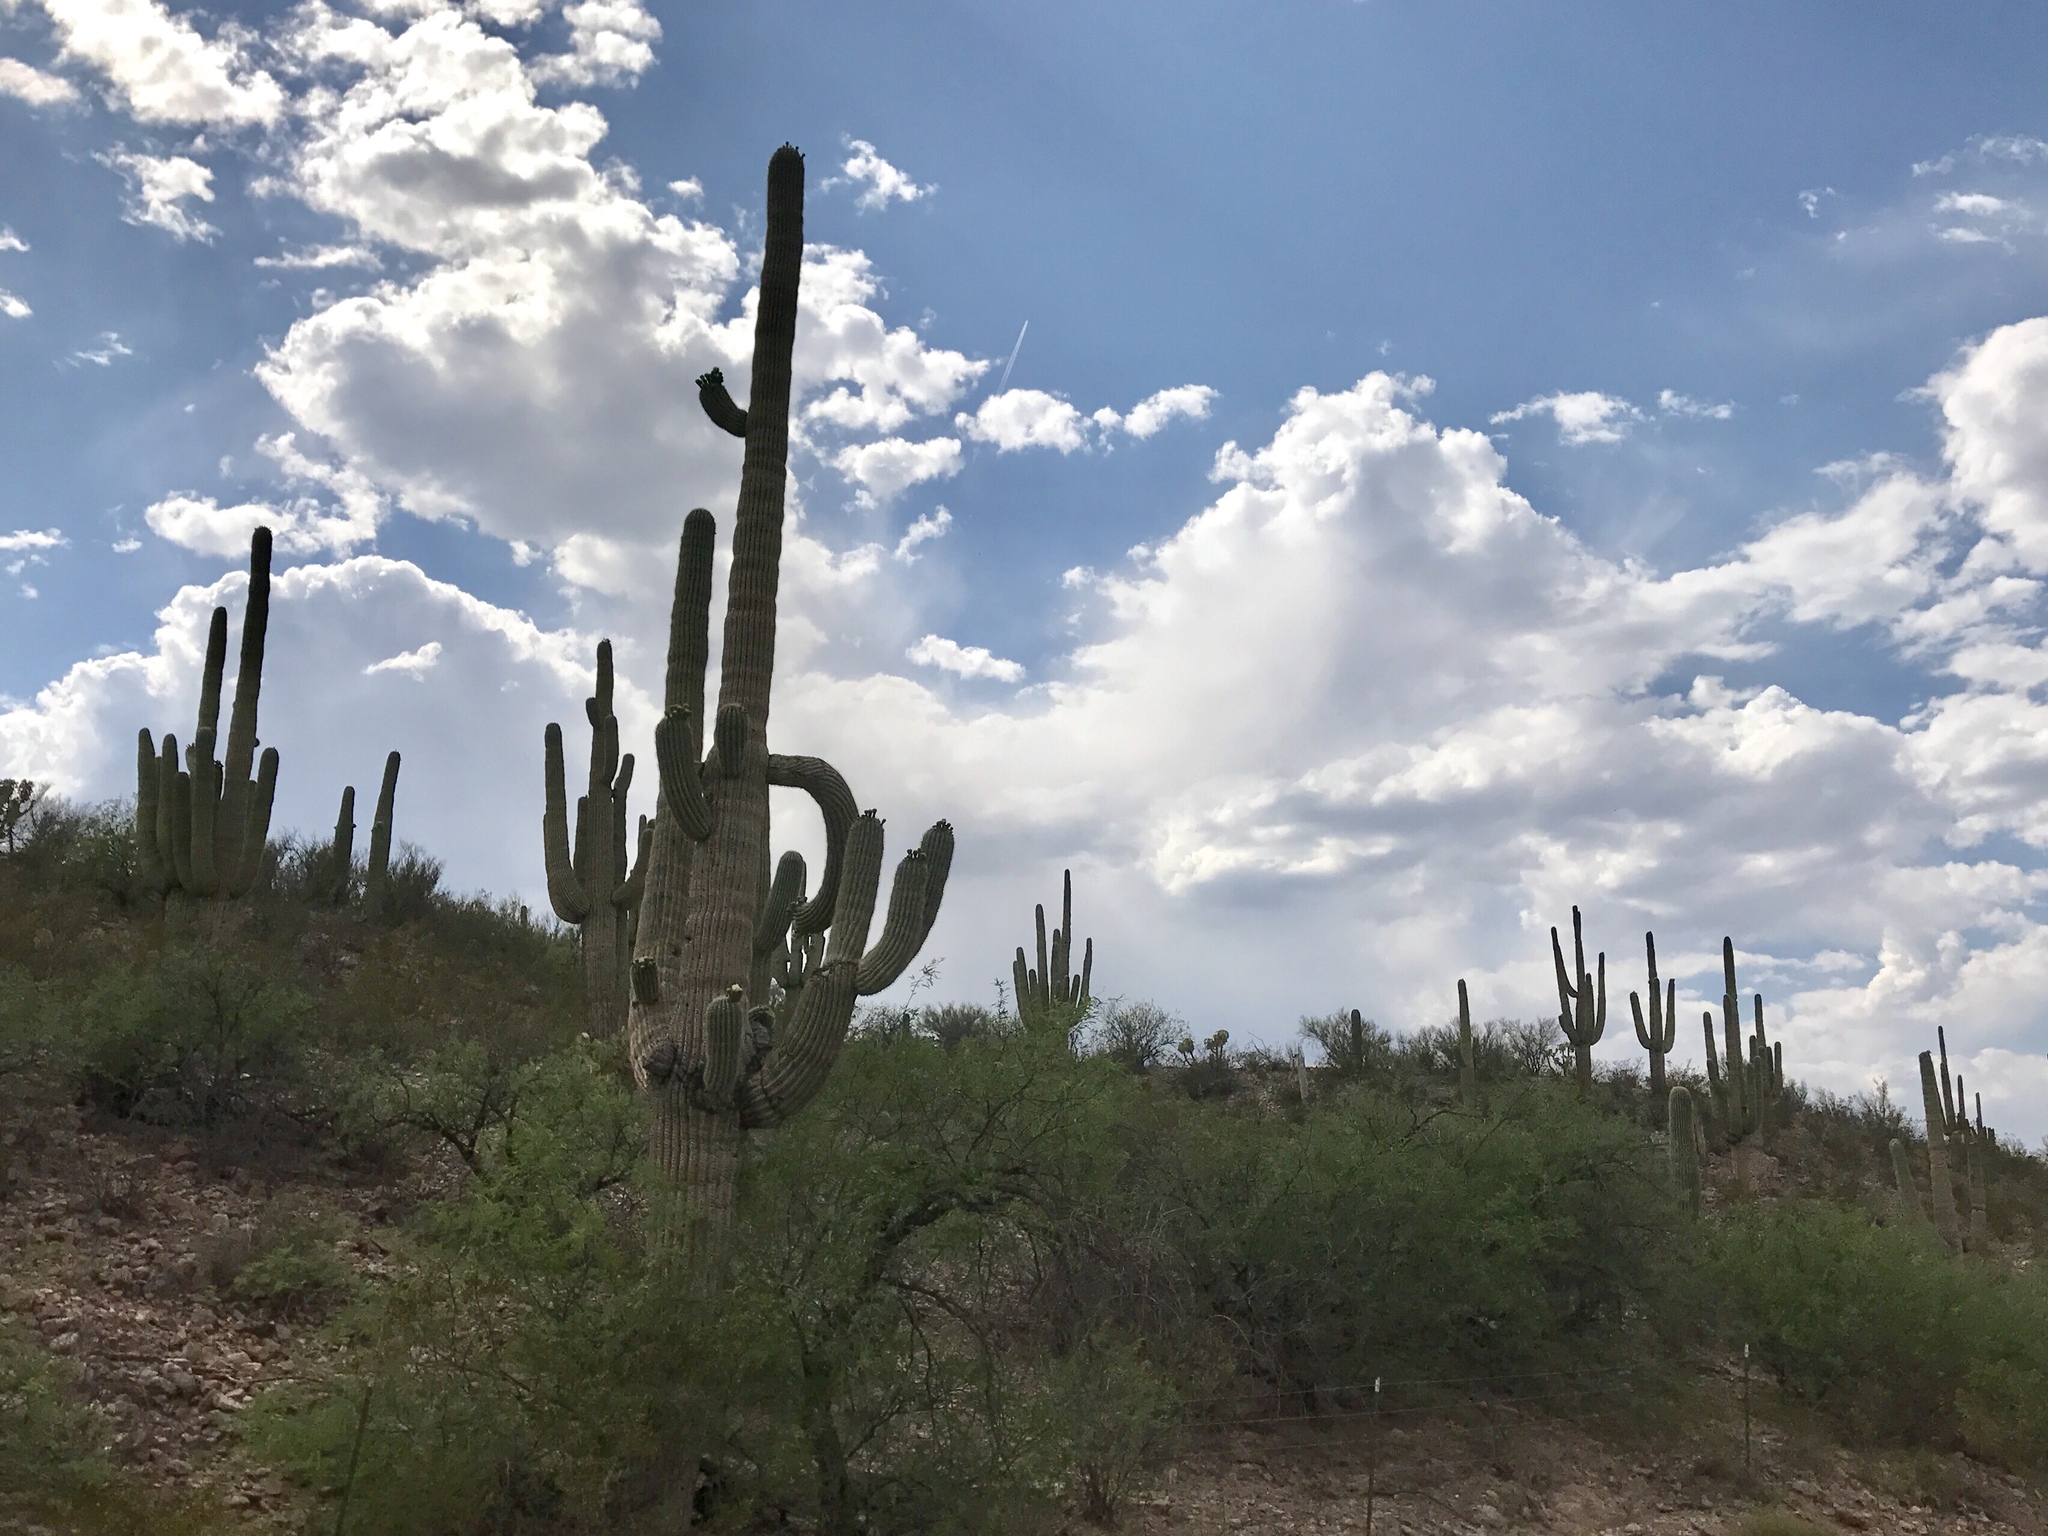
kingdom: Plantae
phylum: Tracheophyta
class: Magnoliopsida
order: Caryophyllales
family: Cactaceae
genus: Carnegiea
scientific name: Carnegiea gigantea
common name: Saguaro
